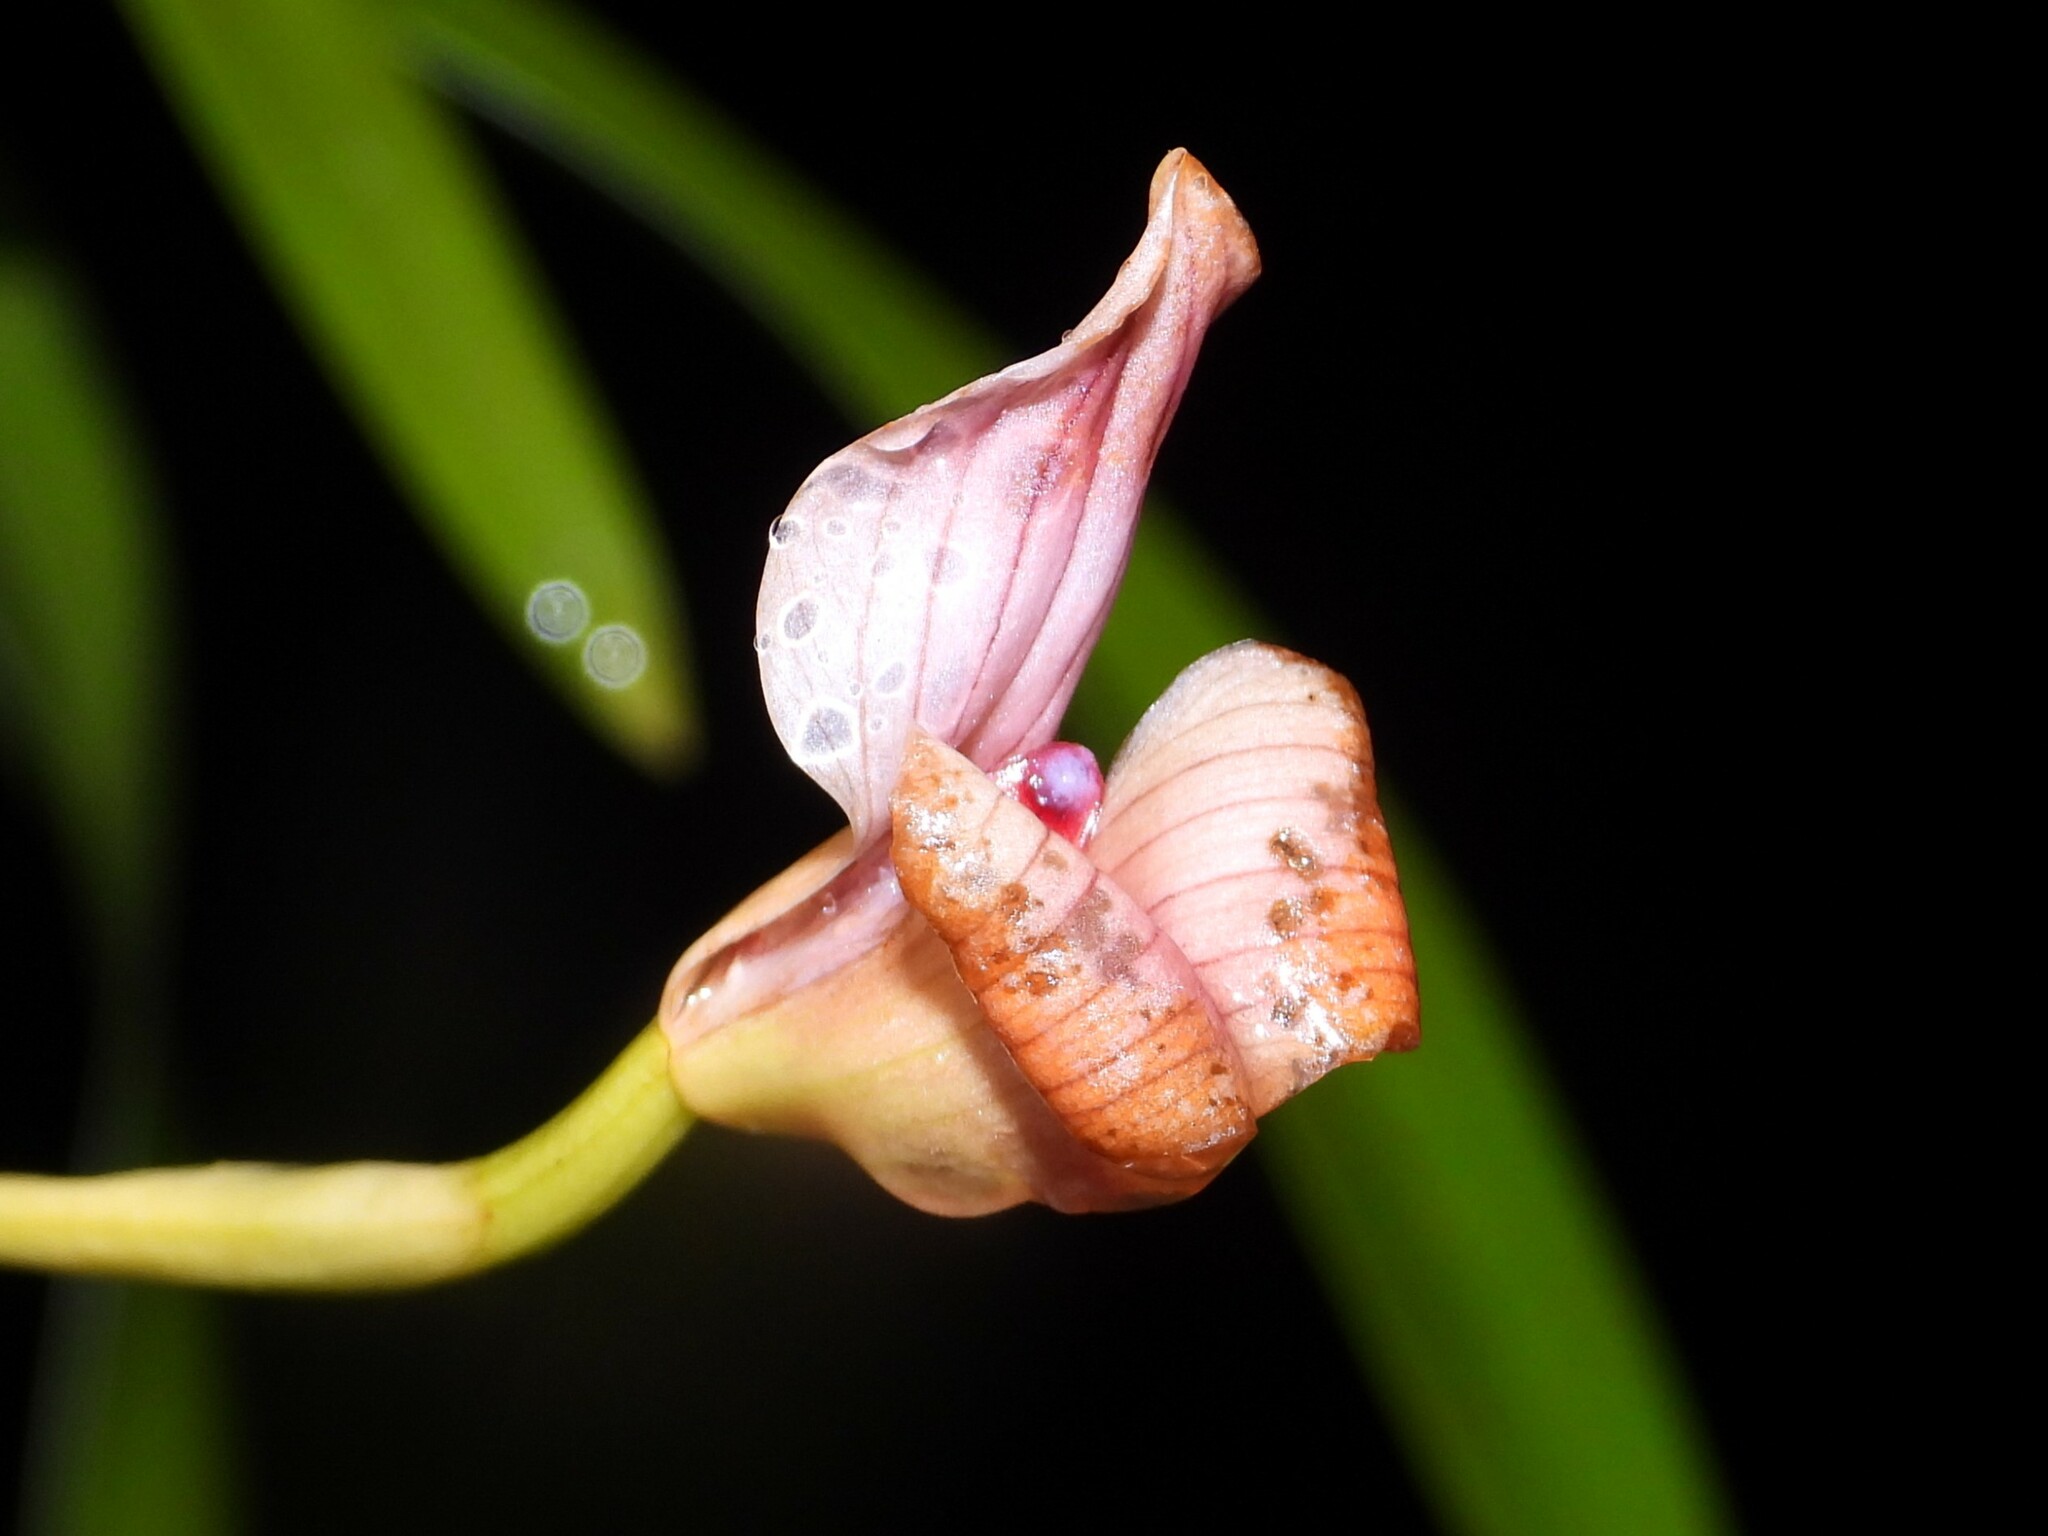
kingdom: Plantae
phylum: Tracheophyta
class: Liliopsida
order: Asparagales
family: Orchidaceae
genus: Maxillaria
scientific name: Maxillaria egertoniana
